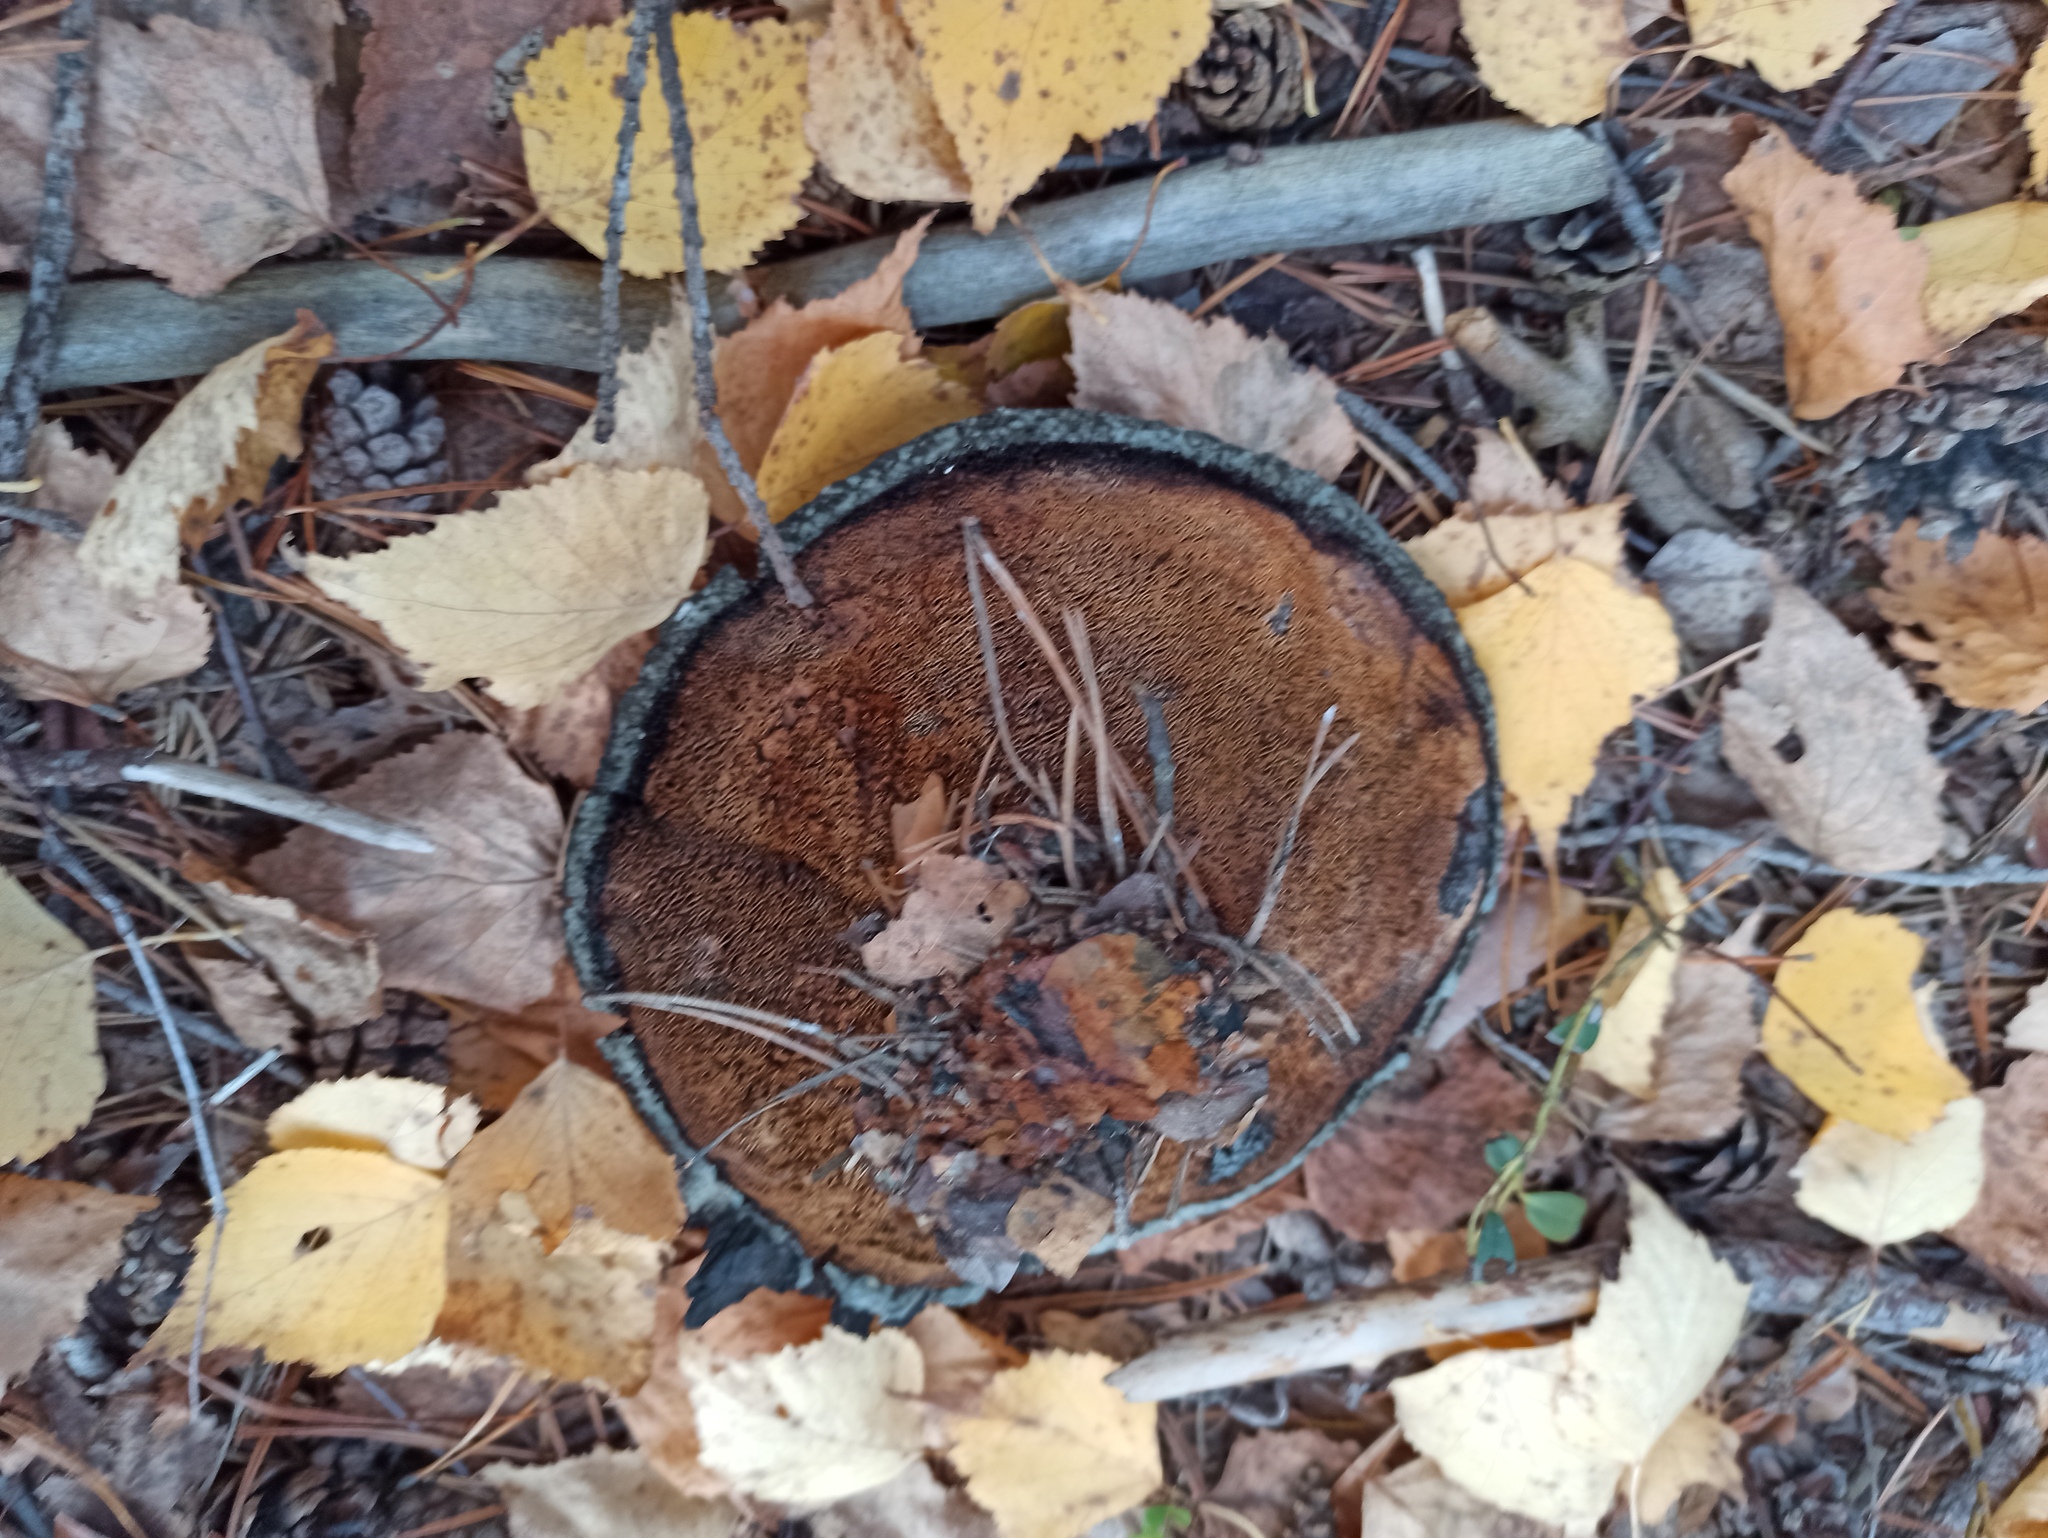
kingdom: Fungi
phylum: Basidiomycota
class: Agaricomycetes
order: Thelephorales
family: Bankeraceae
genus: Sarcodon
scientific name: Sarcodon squamosus
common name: Scaly tooth
